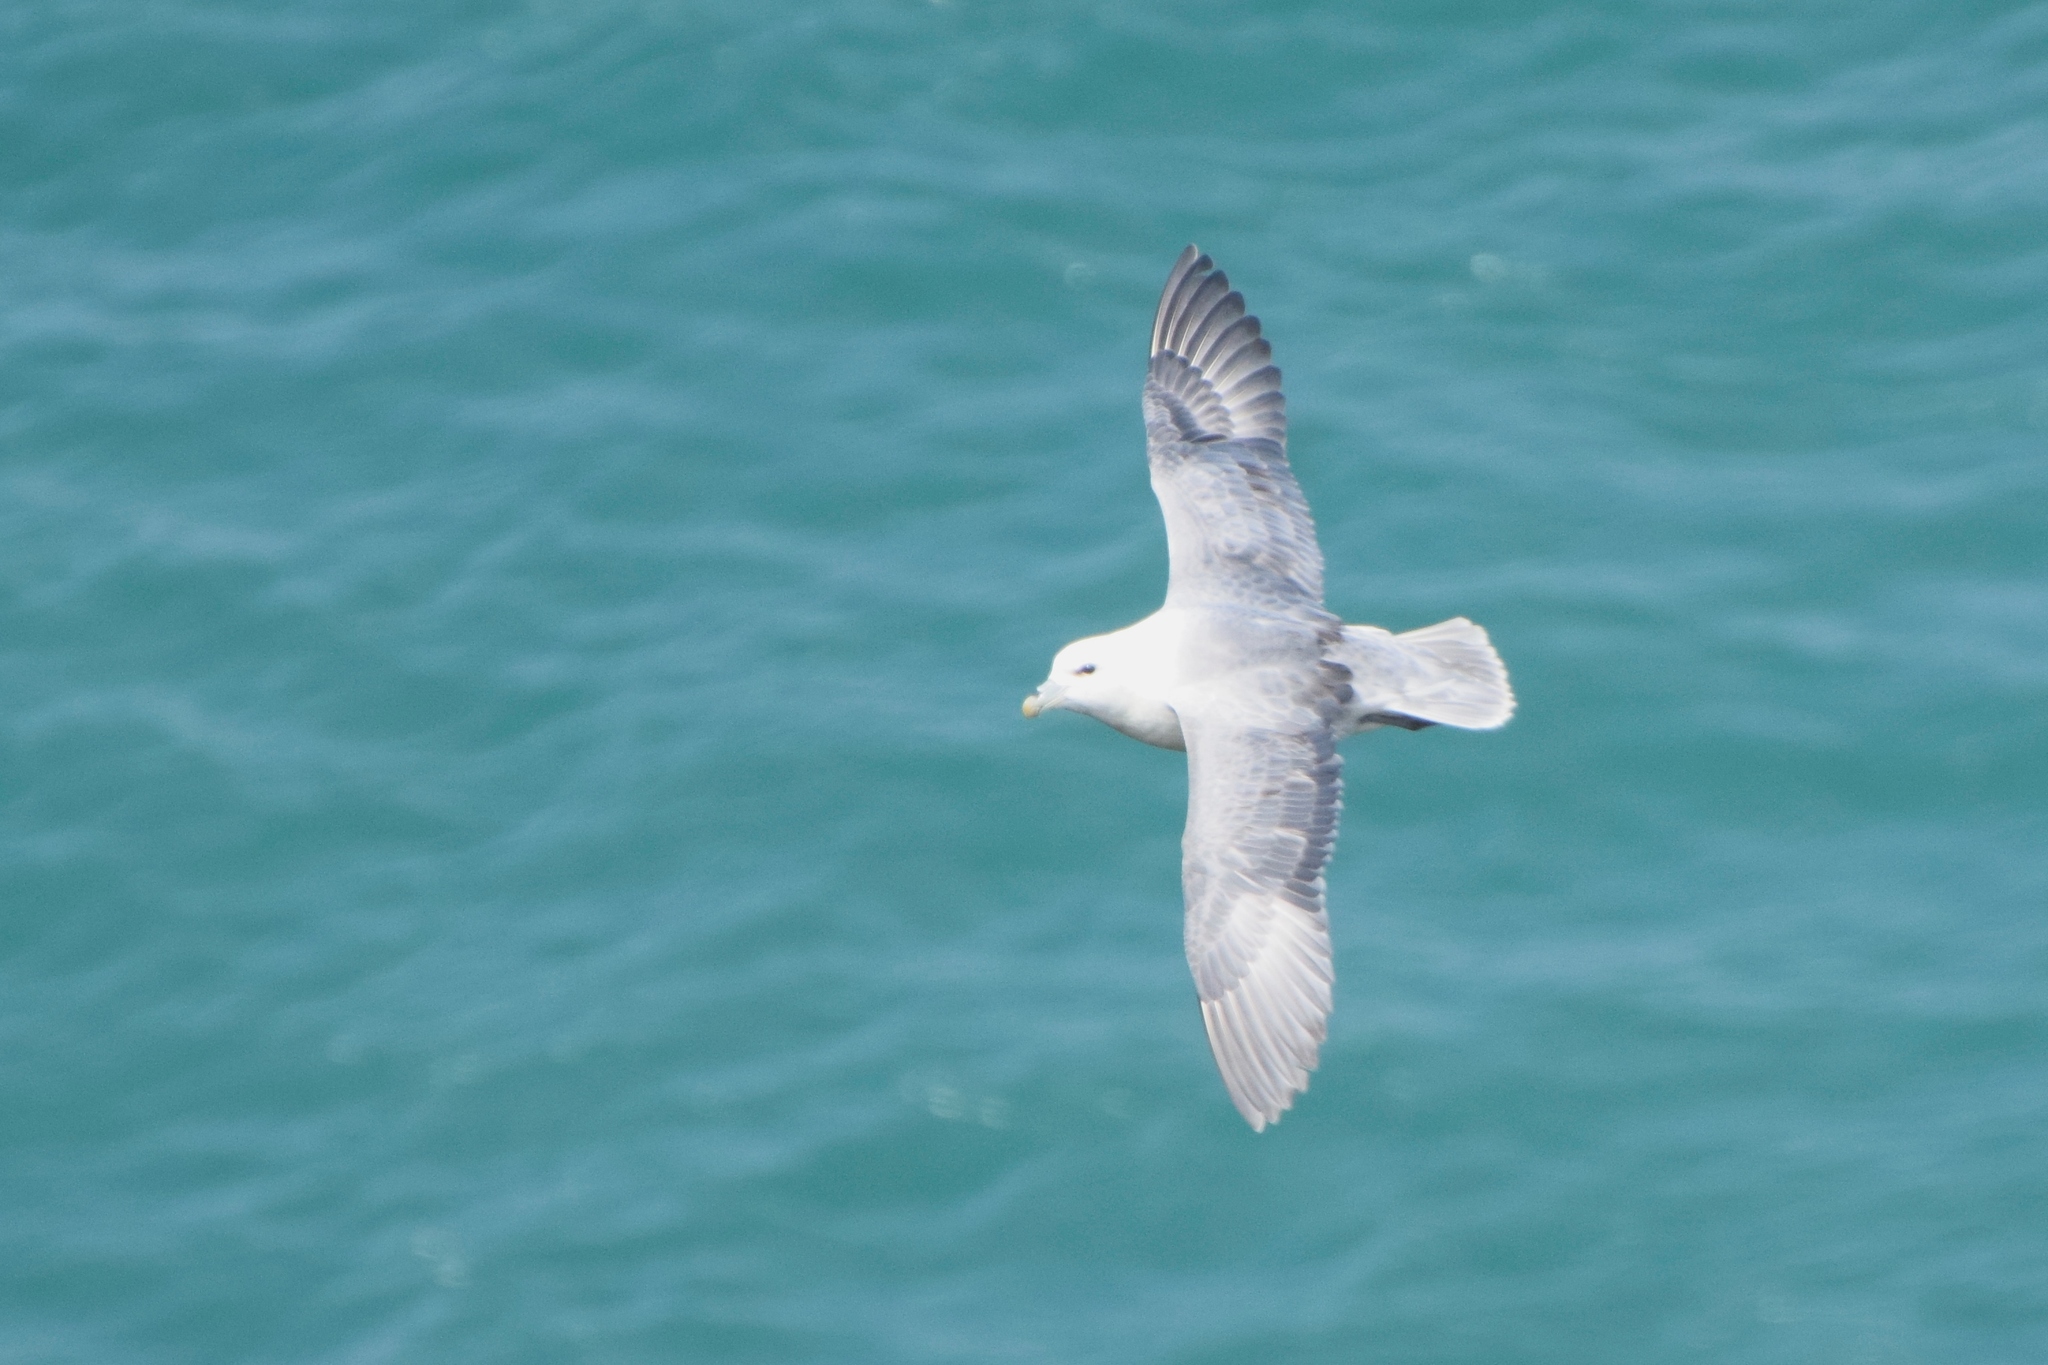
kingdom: Animalia
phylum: Chordata
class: Aves
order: Procellariiformes
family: Procellariidae
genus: Fulmarus
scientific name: Fulmarus glacialis
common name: Northern fulmar
